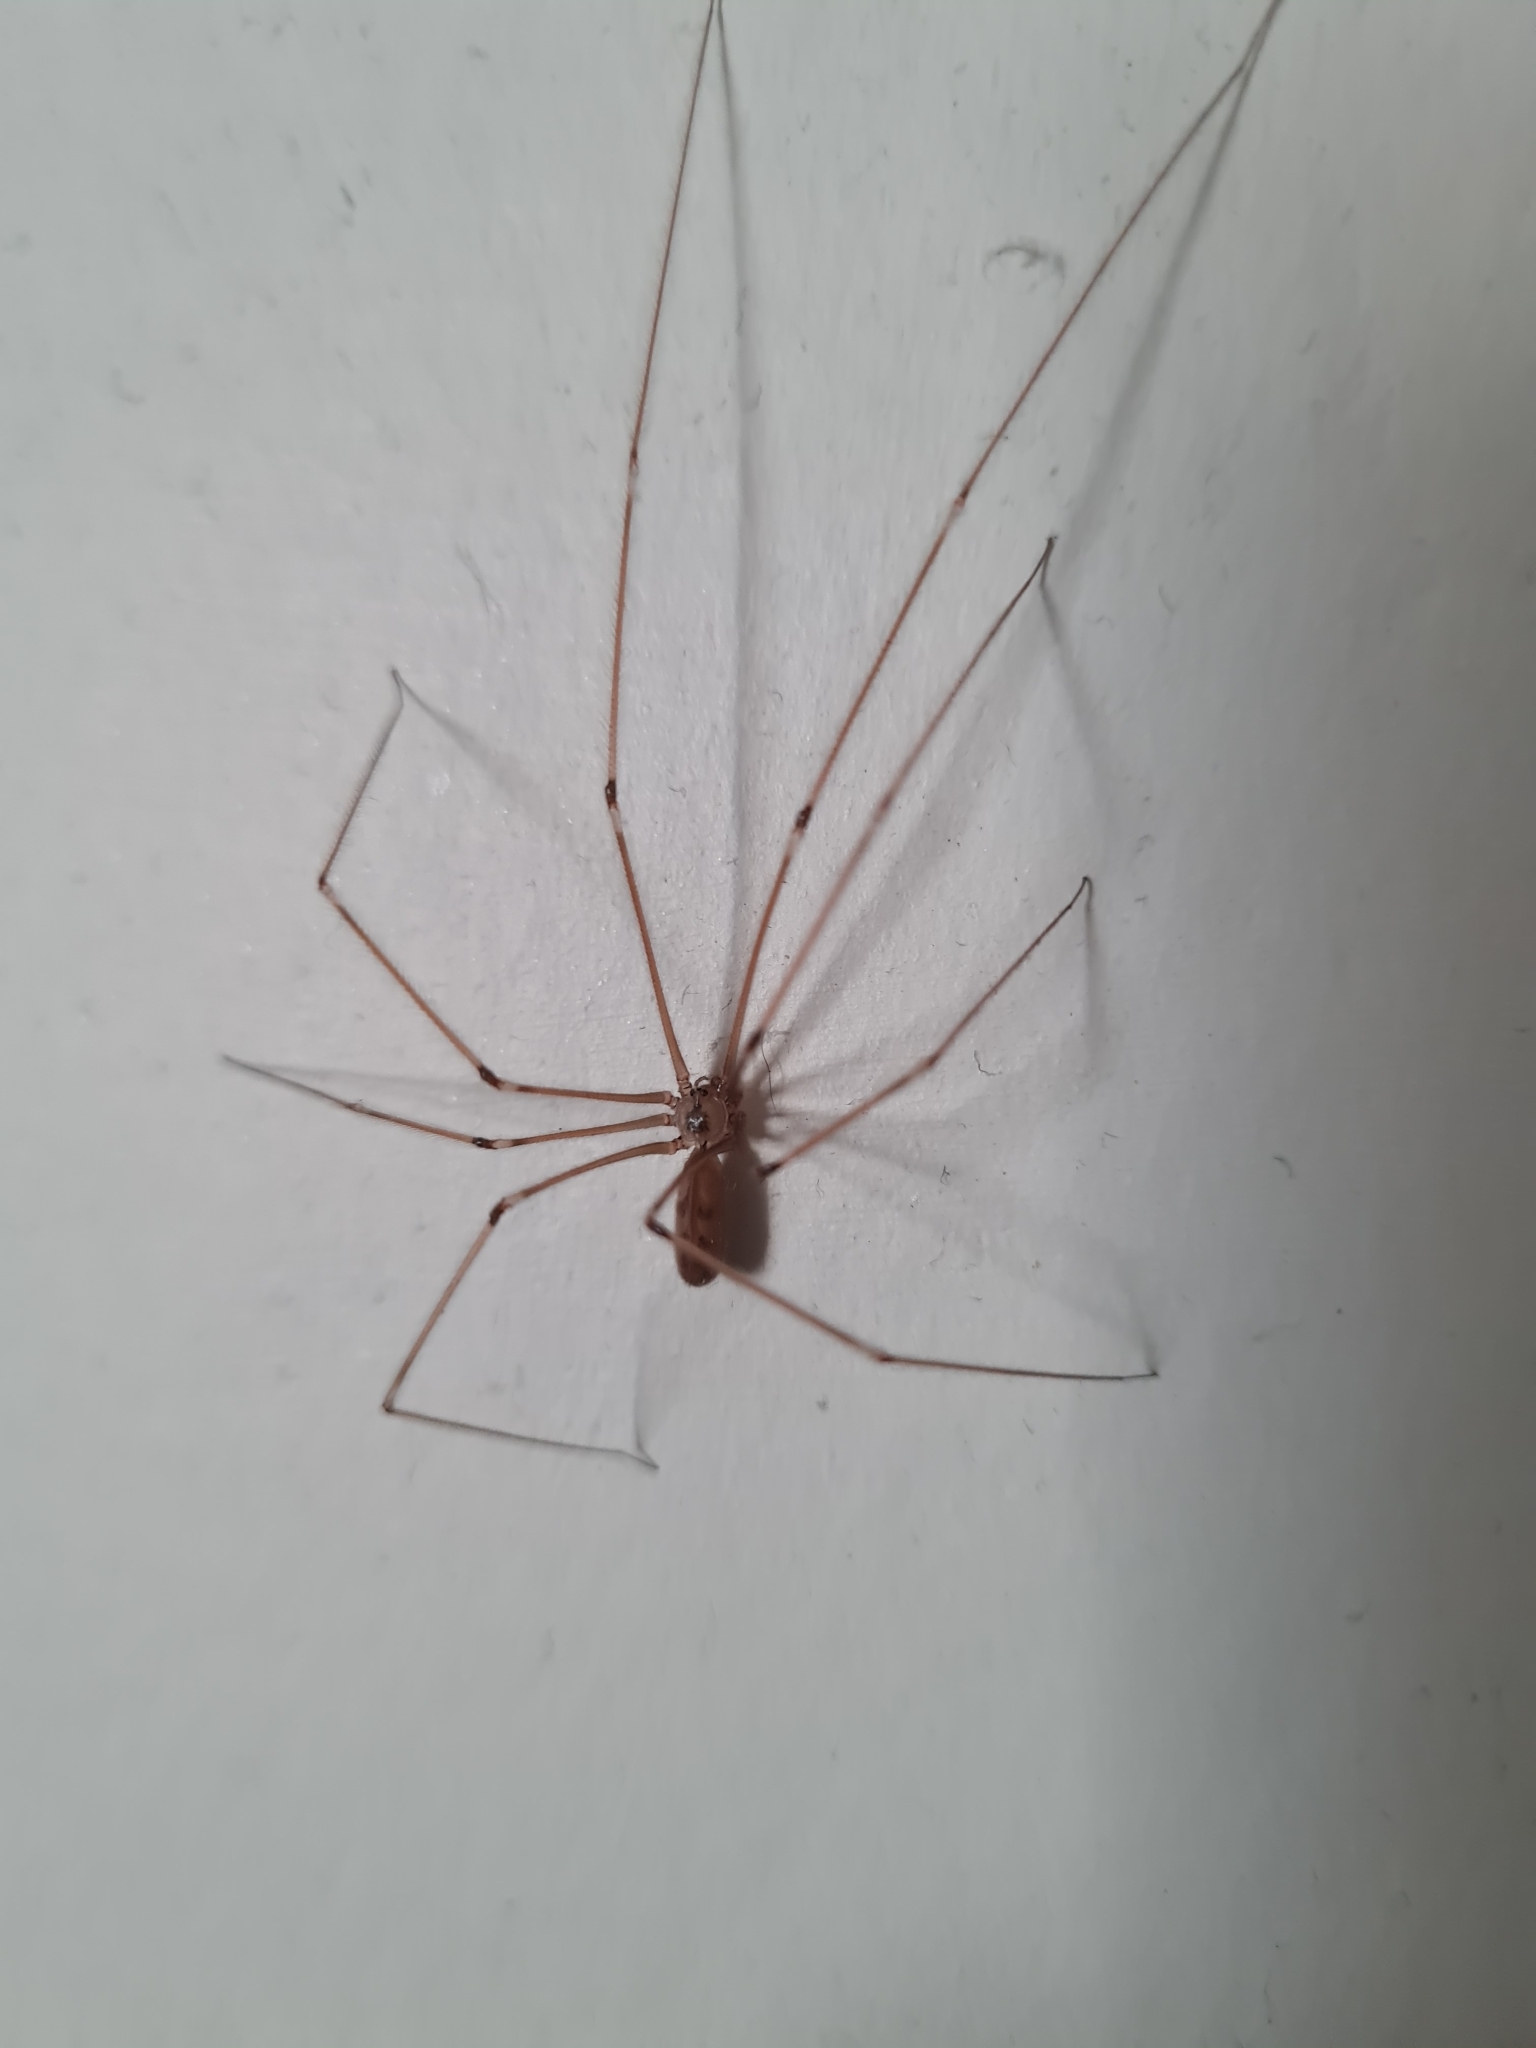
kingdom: Animalia
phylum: Arthropoda
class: Arachnida
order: Araneae
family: Pholcidae
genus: Pholcus
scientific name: Pholcus phalangioides
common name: Longbodied cellar spider
